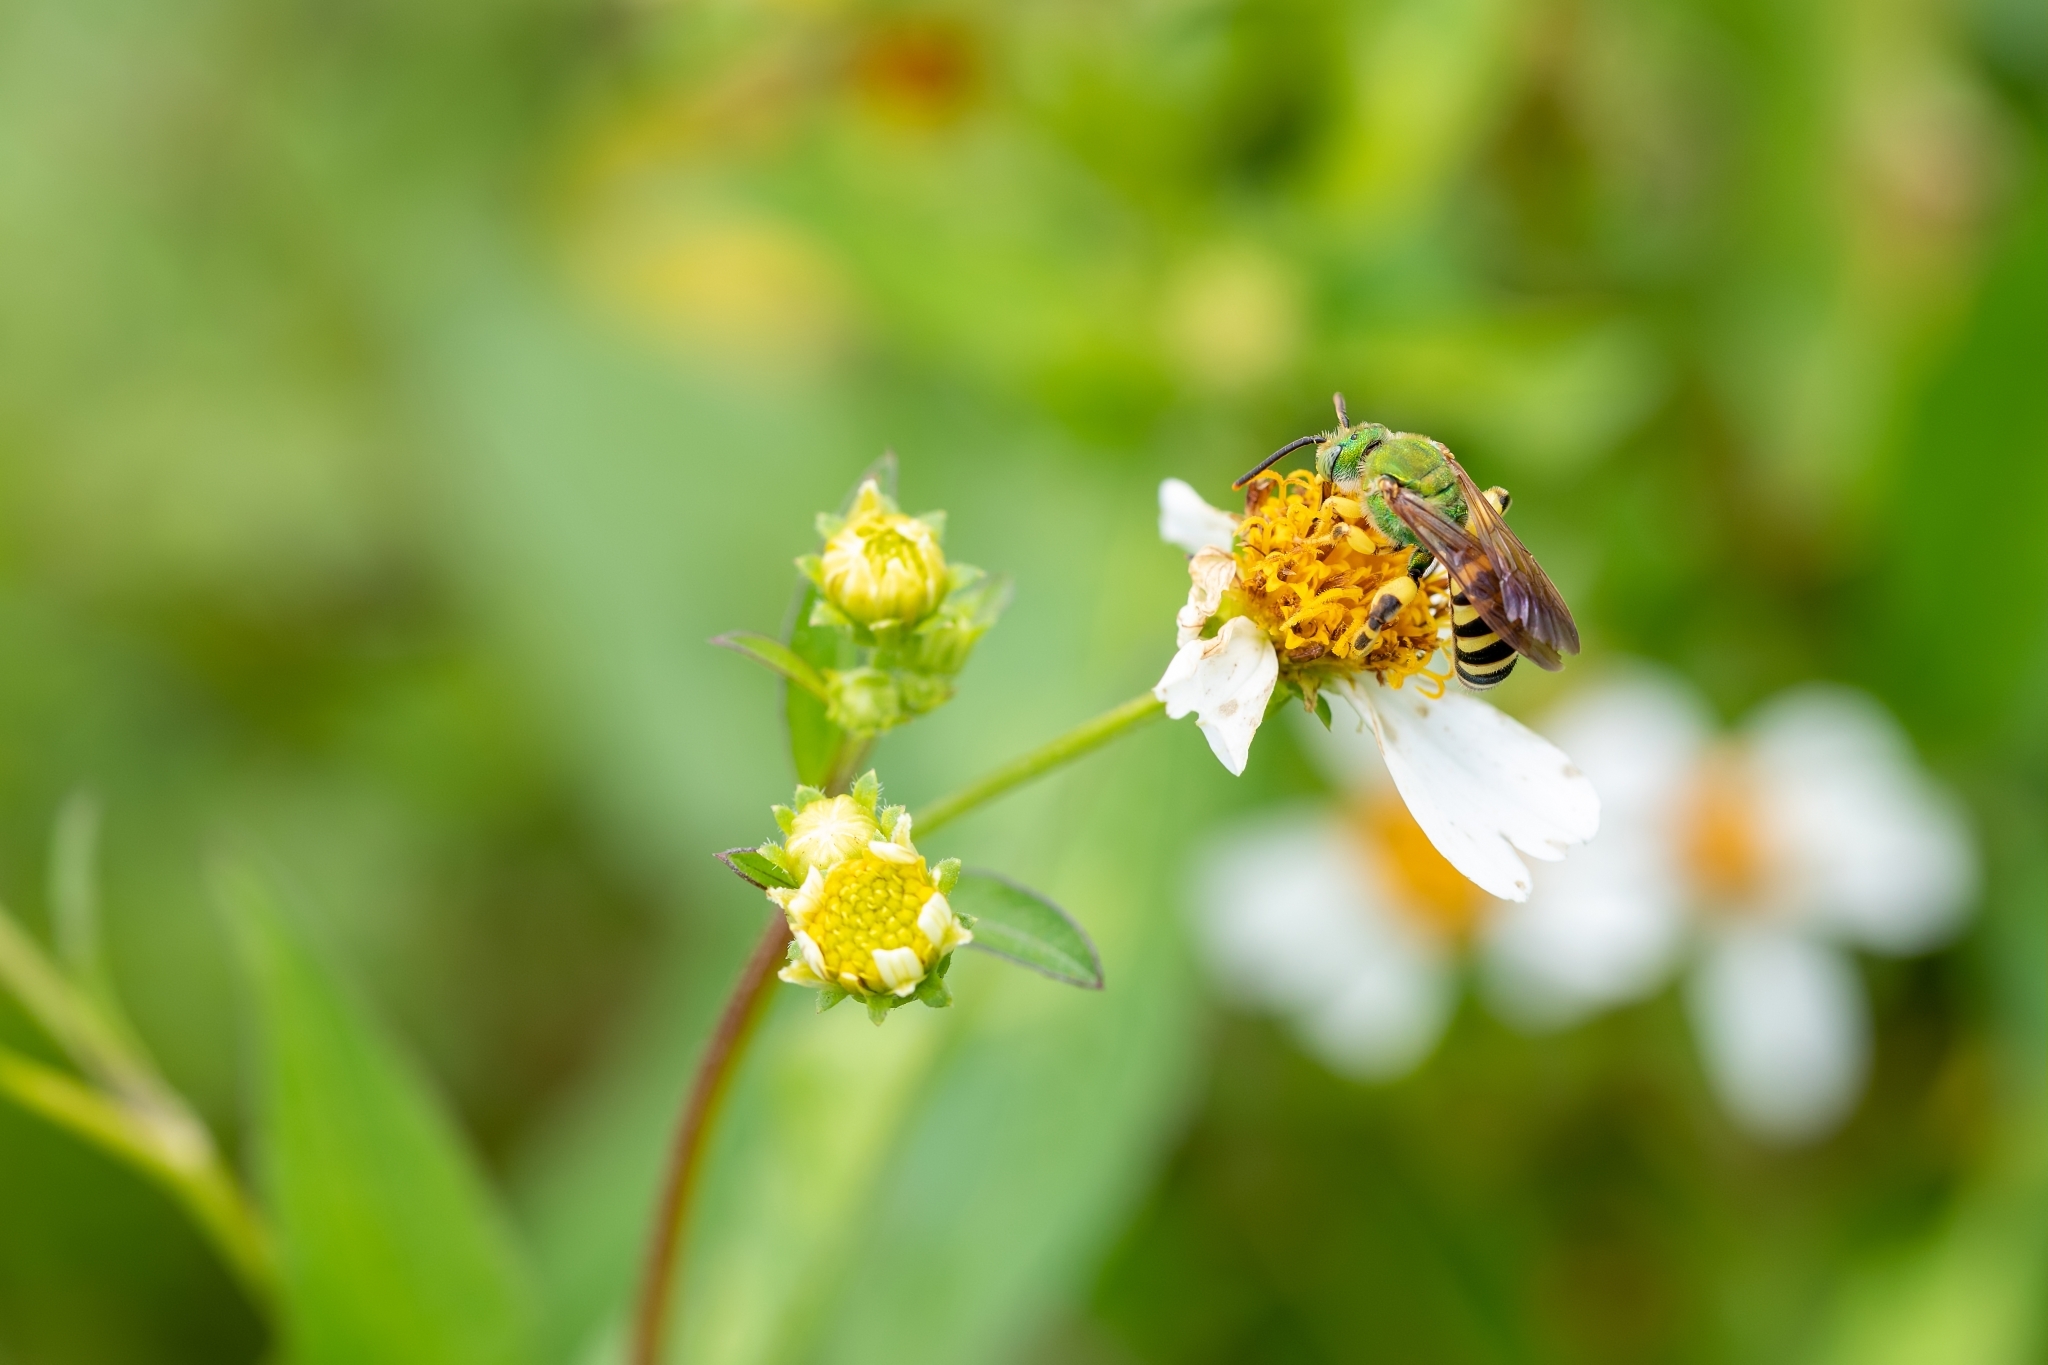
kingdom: Animalia
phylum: Arthropoda
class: Insecta
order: Hymenoptera
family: Halictidae
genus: Agapostemon
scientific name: Agapostemon splendens
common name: Brown-winged striped sweat bee
